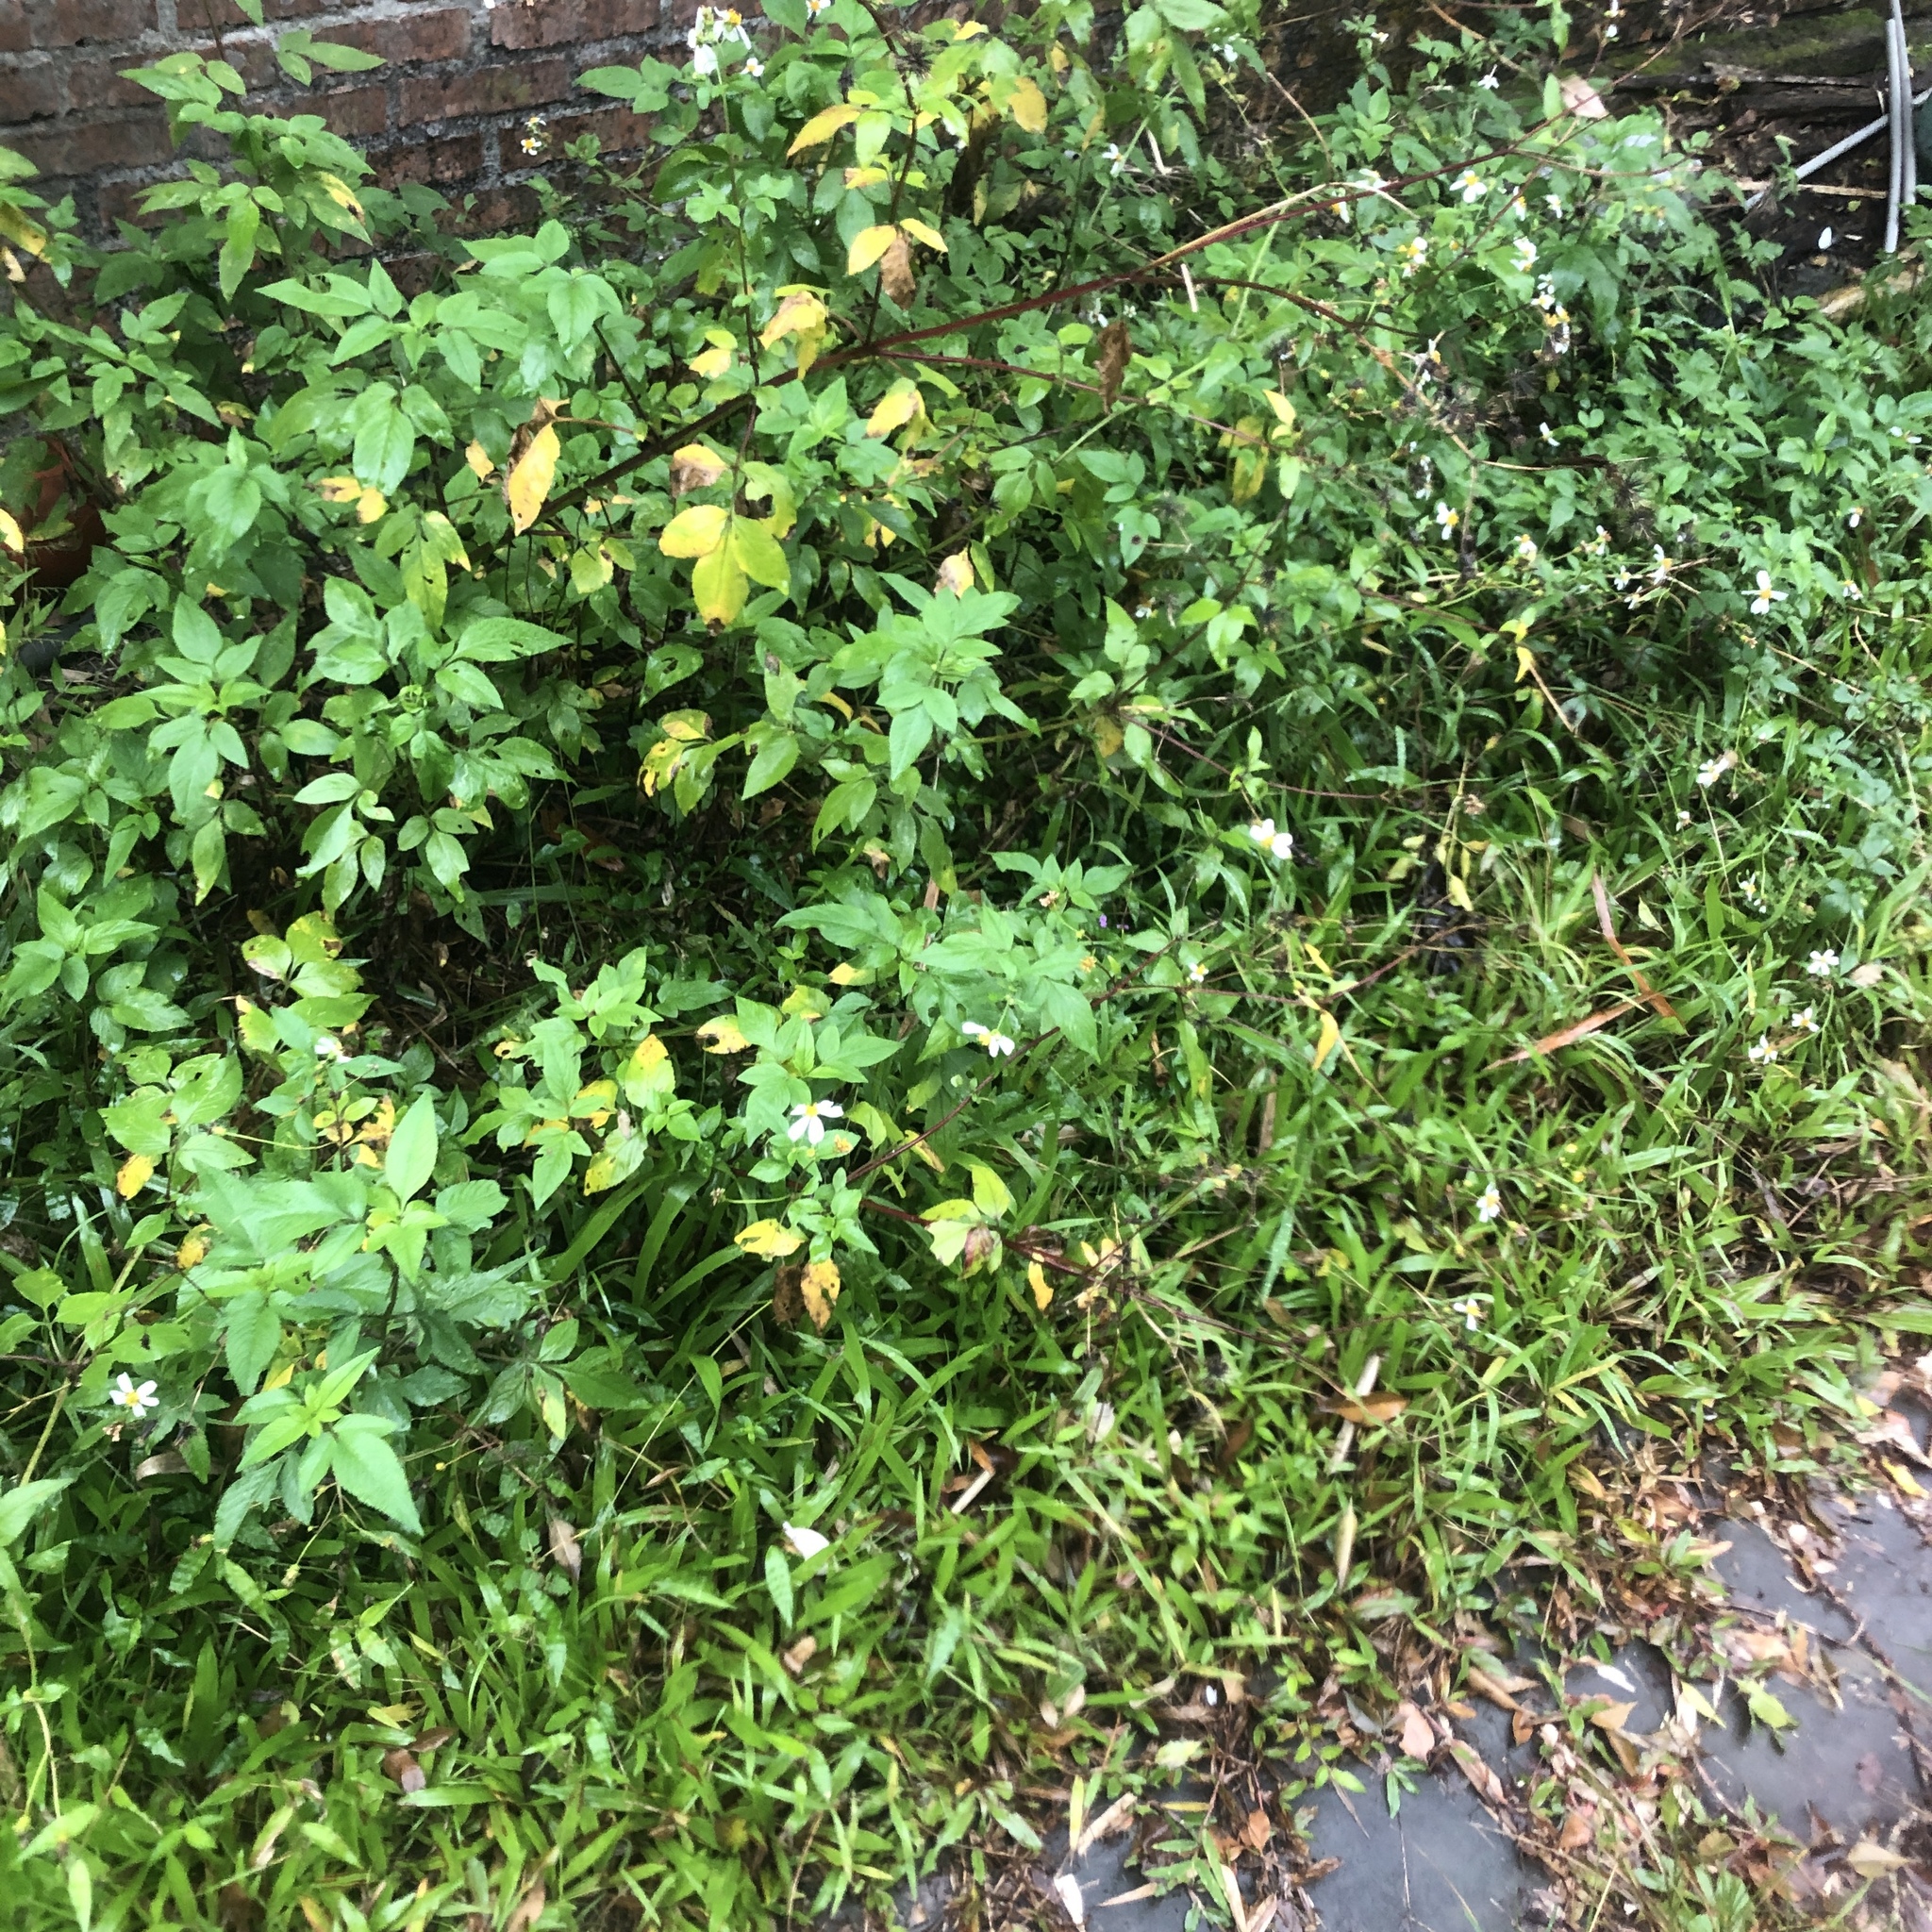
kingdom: Plantae
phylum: Tracheophyta
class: Magnoliopsida
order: Asterales
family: Asteraceae
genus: Bidens
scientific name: Bidens alba
